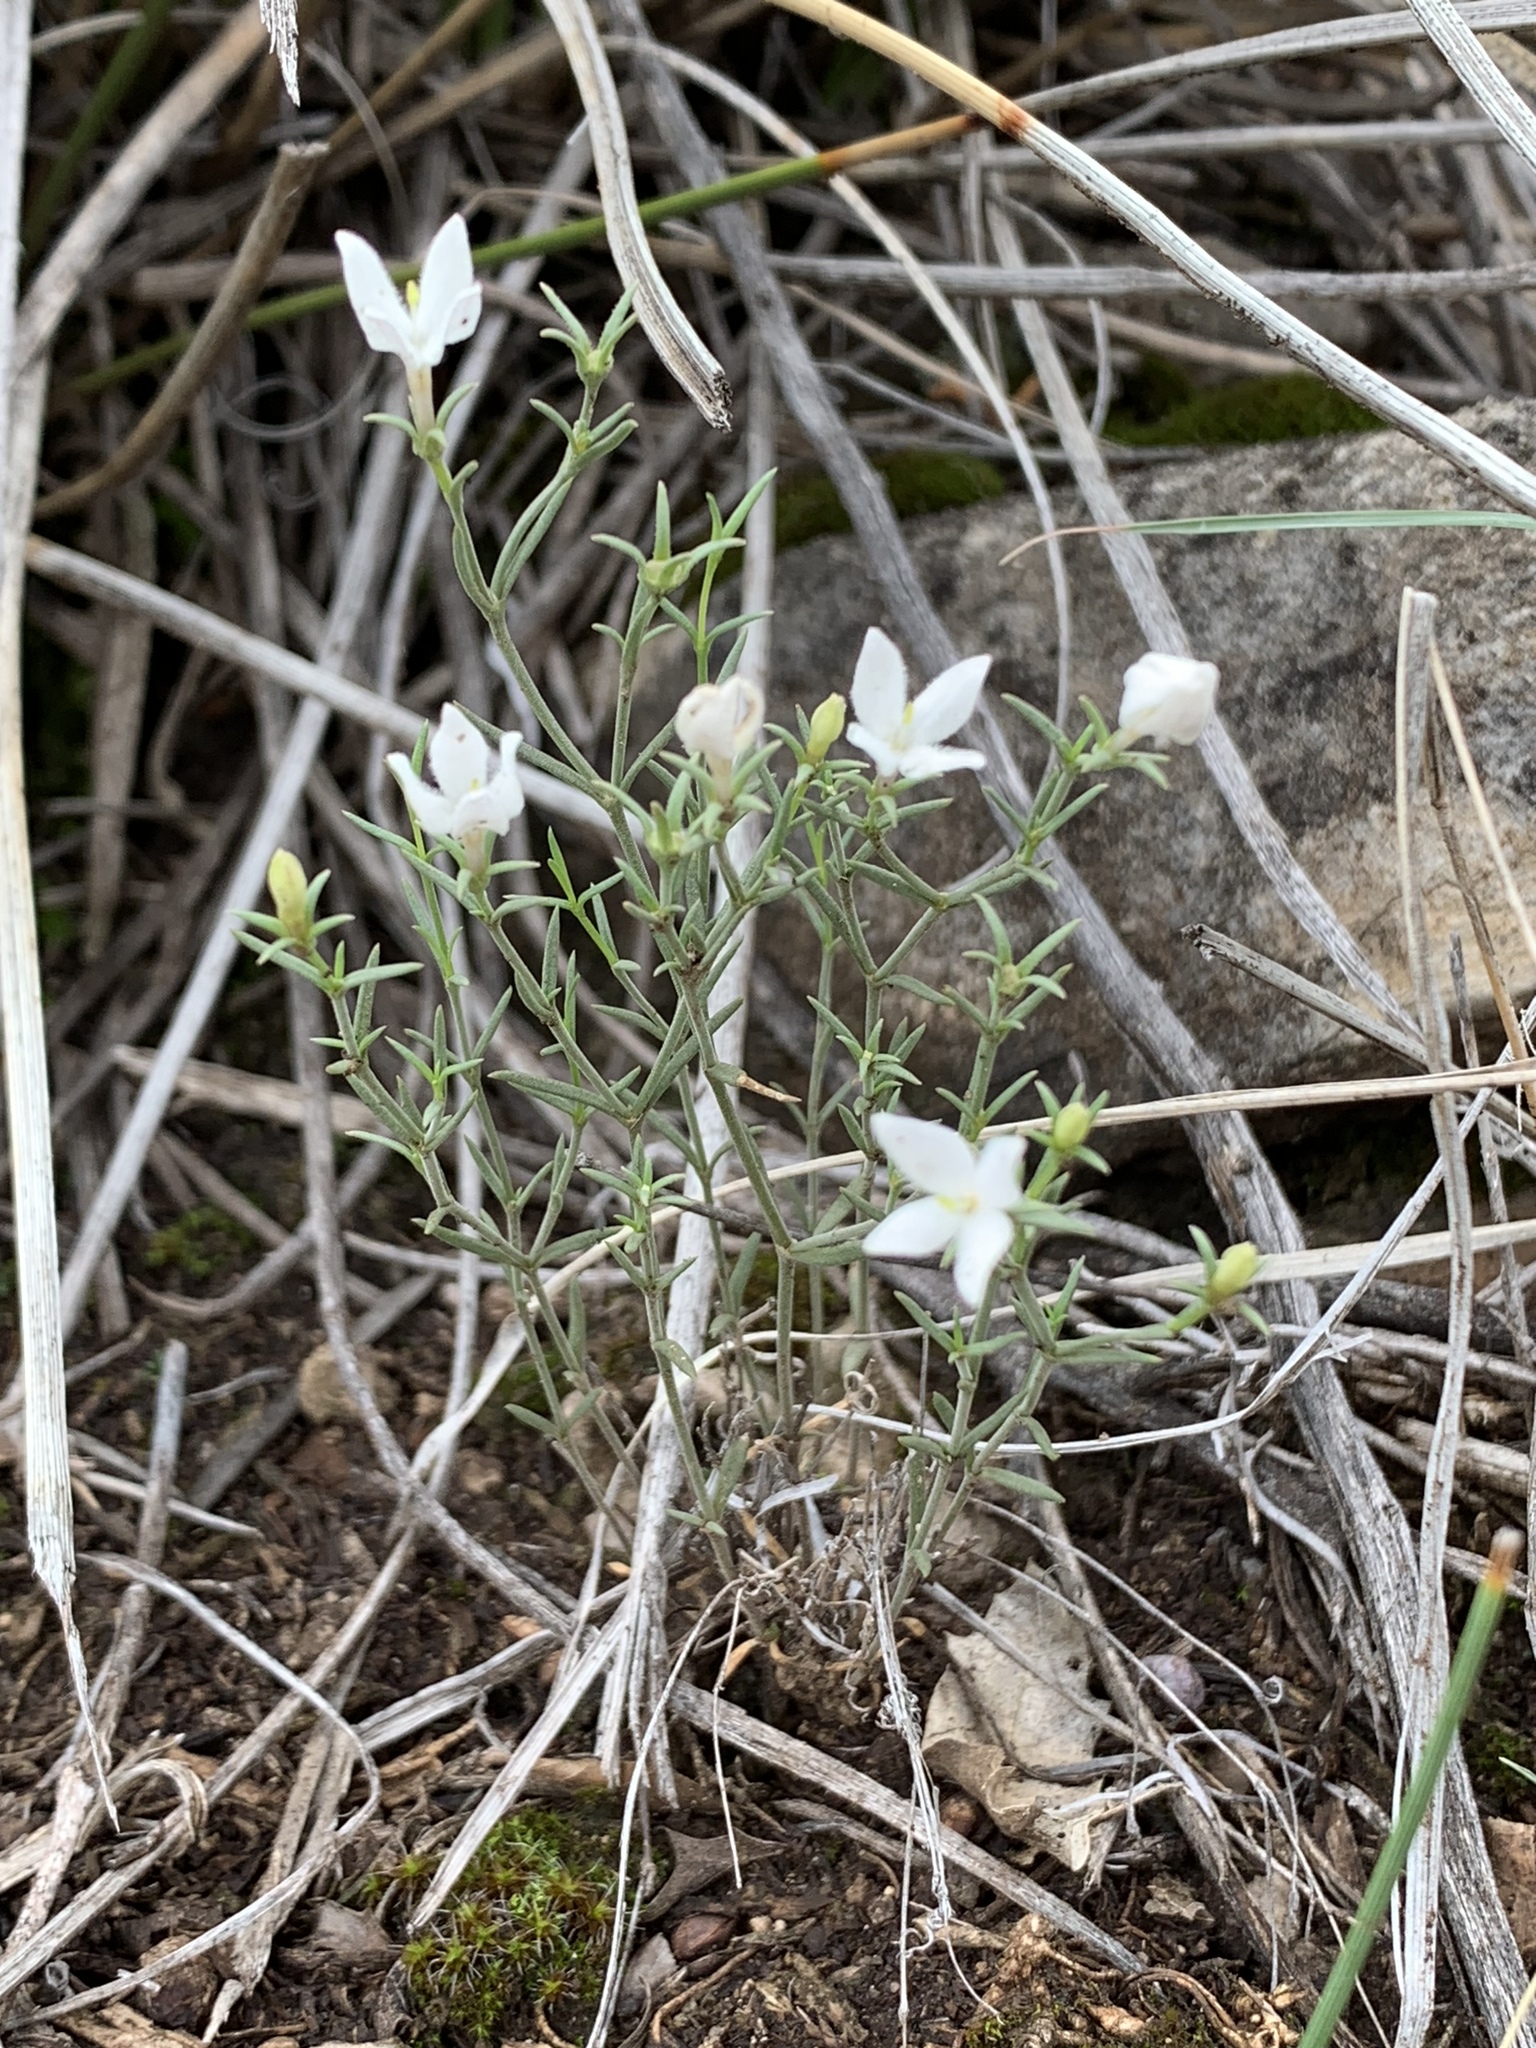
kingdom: Plantae
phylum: Tracheophyta
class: Magnoliopsida
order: Gentianales
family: Rubiaceae
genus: Houstonia
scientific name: Houstonia acerosa
